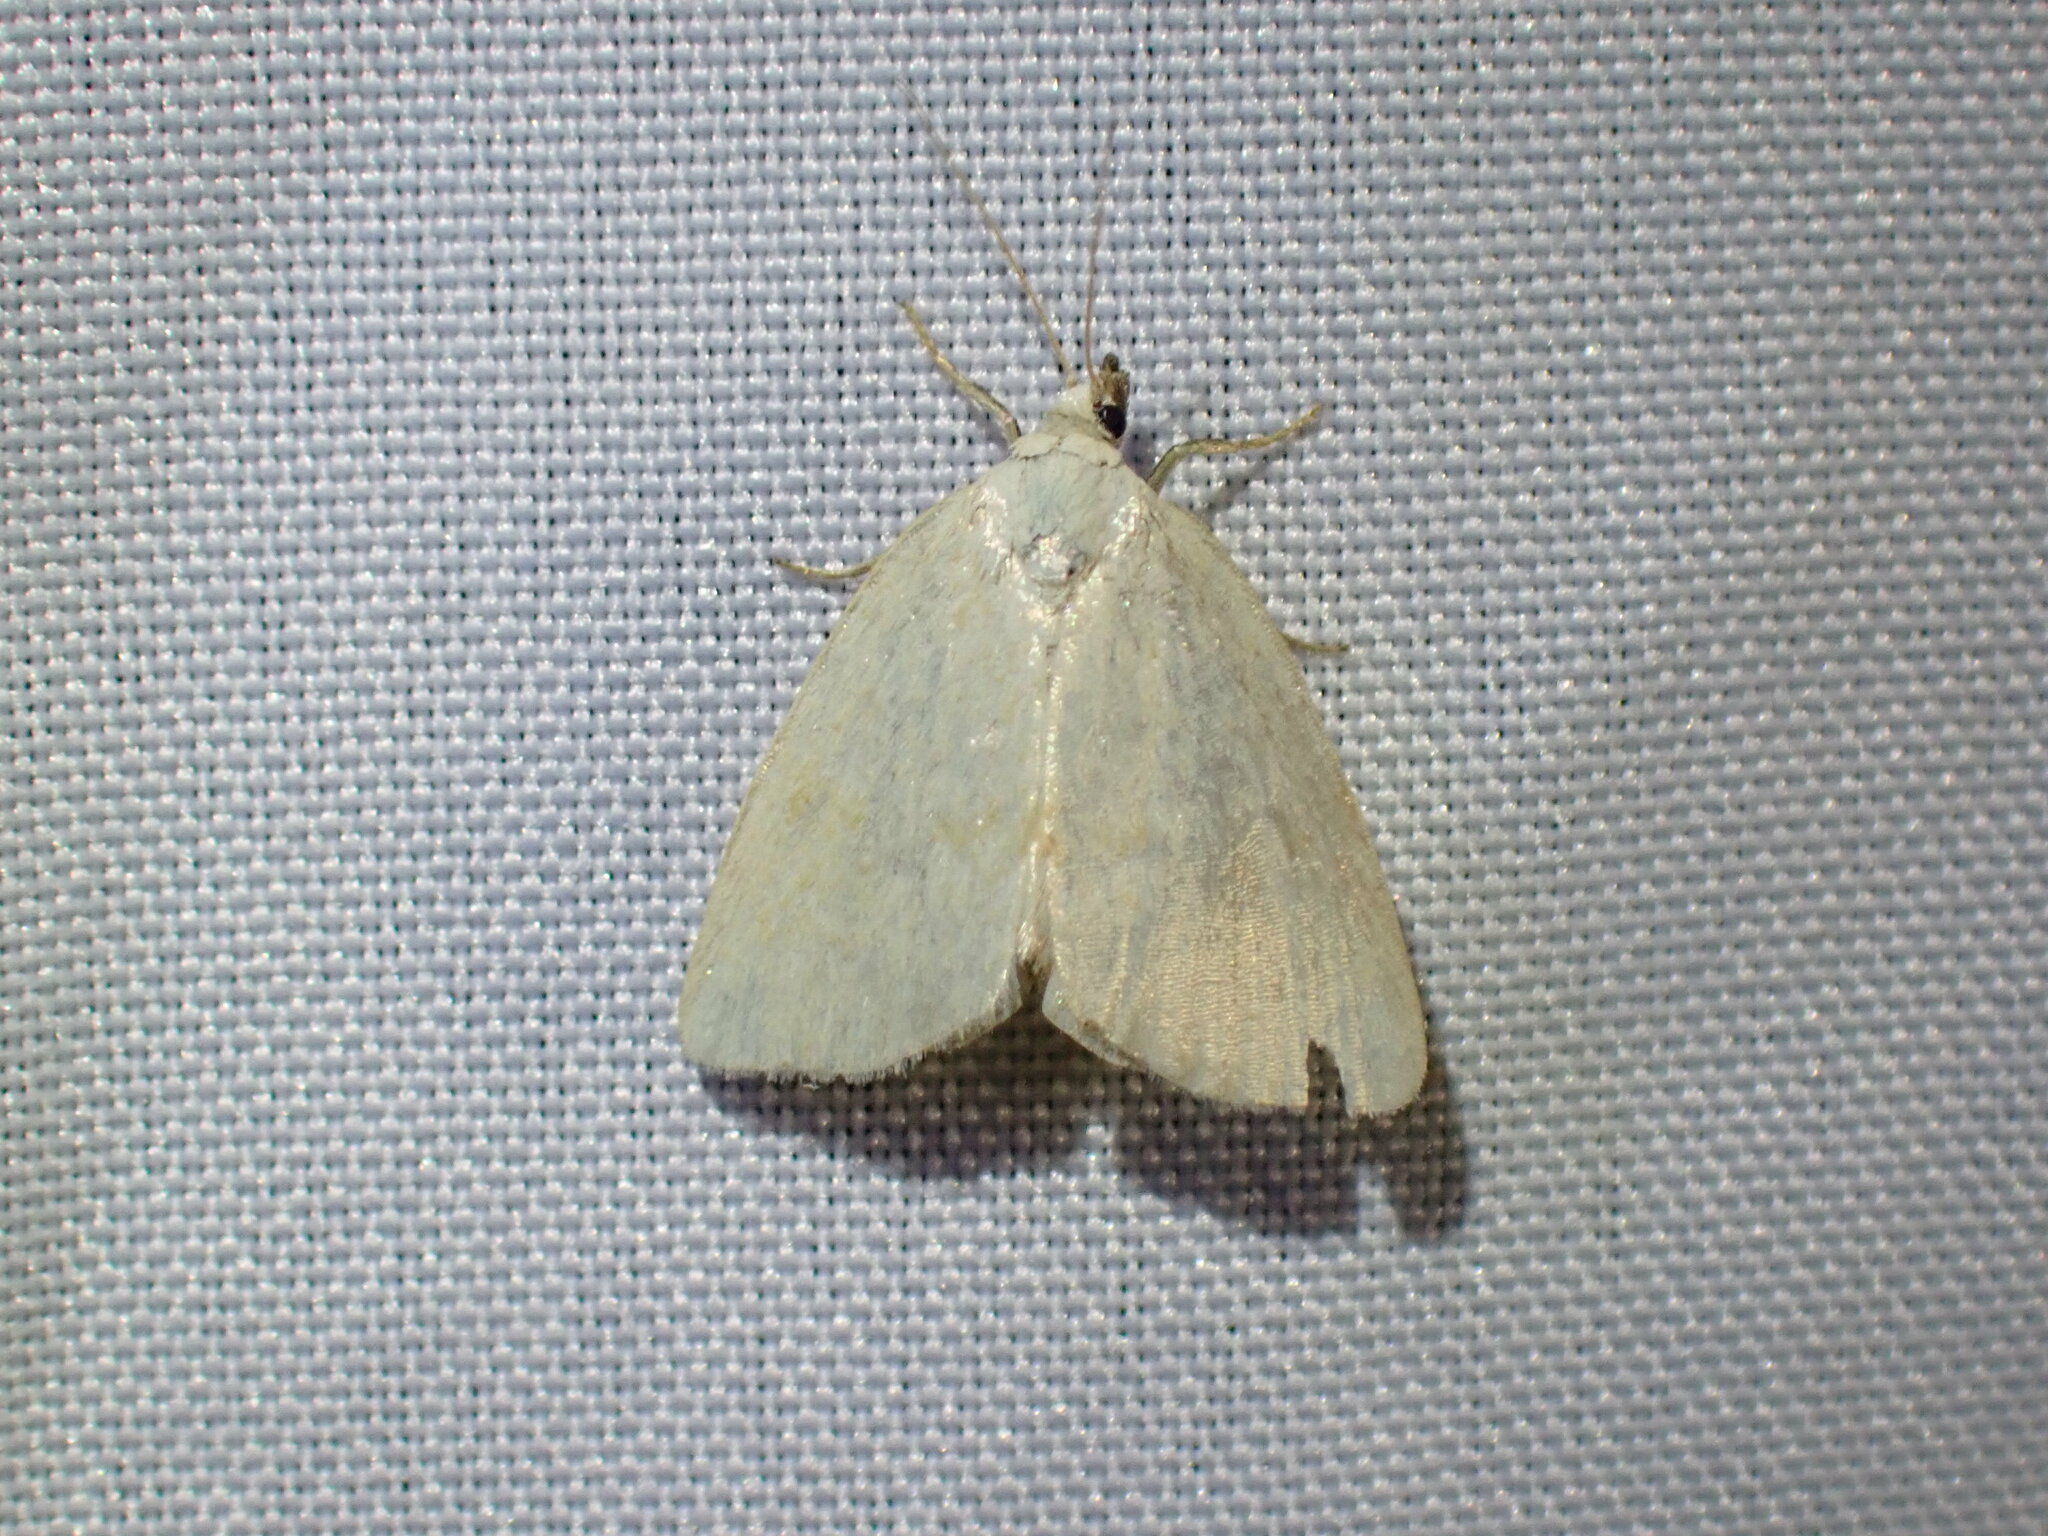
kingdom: Animalia
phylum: Arthropoda
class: Insecta
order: Lepidoptera
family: Noctuidae
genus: Protodeltote
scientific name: Protodeltote albidula
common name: Pale glyph
